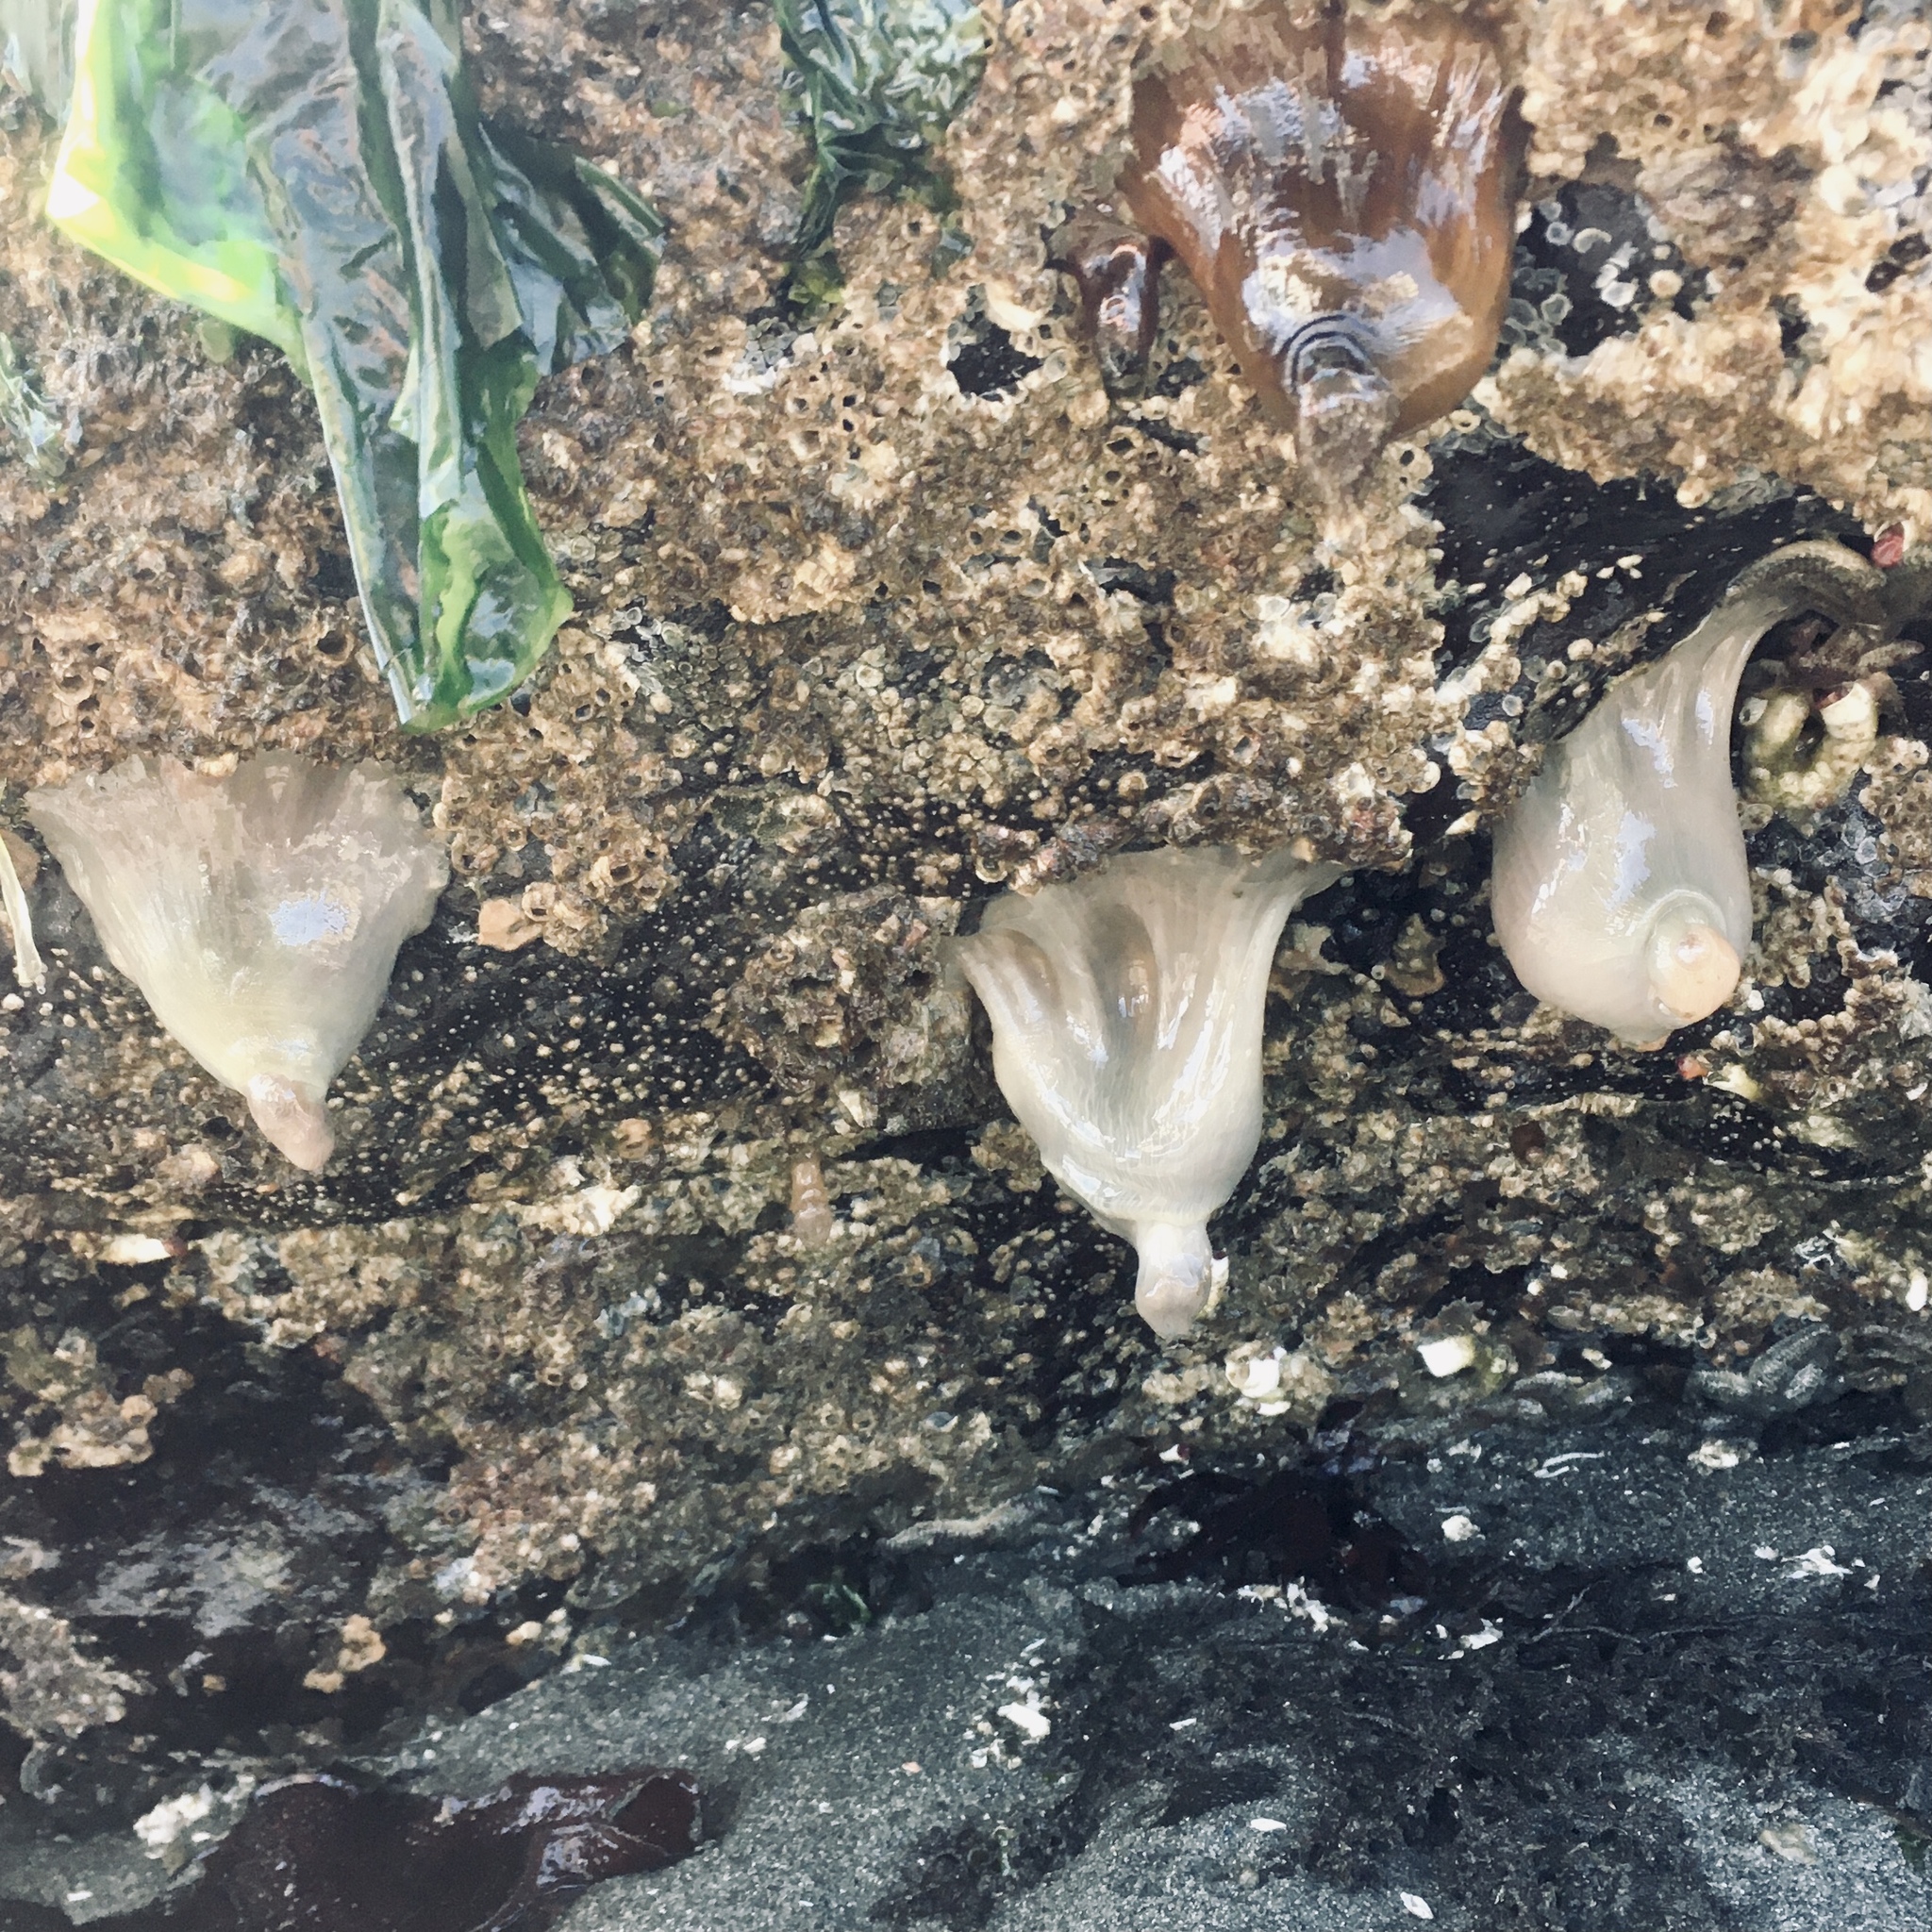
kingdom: Animalia
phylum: Cnidaria
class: Anthozoa
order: Actiniaria
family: Metridiidae
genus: Metridium
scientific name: Metridium senile
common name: Clonal plumose anemone
